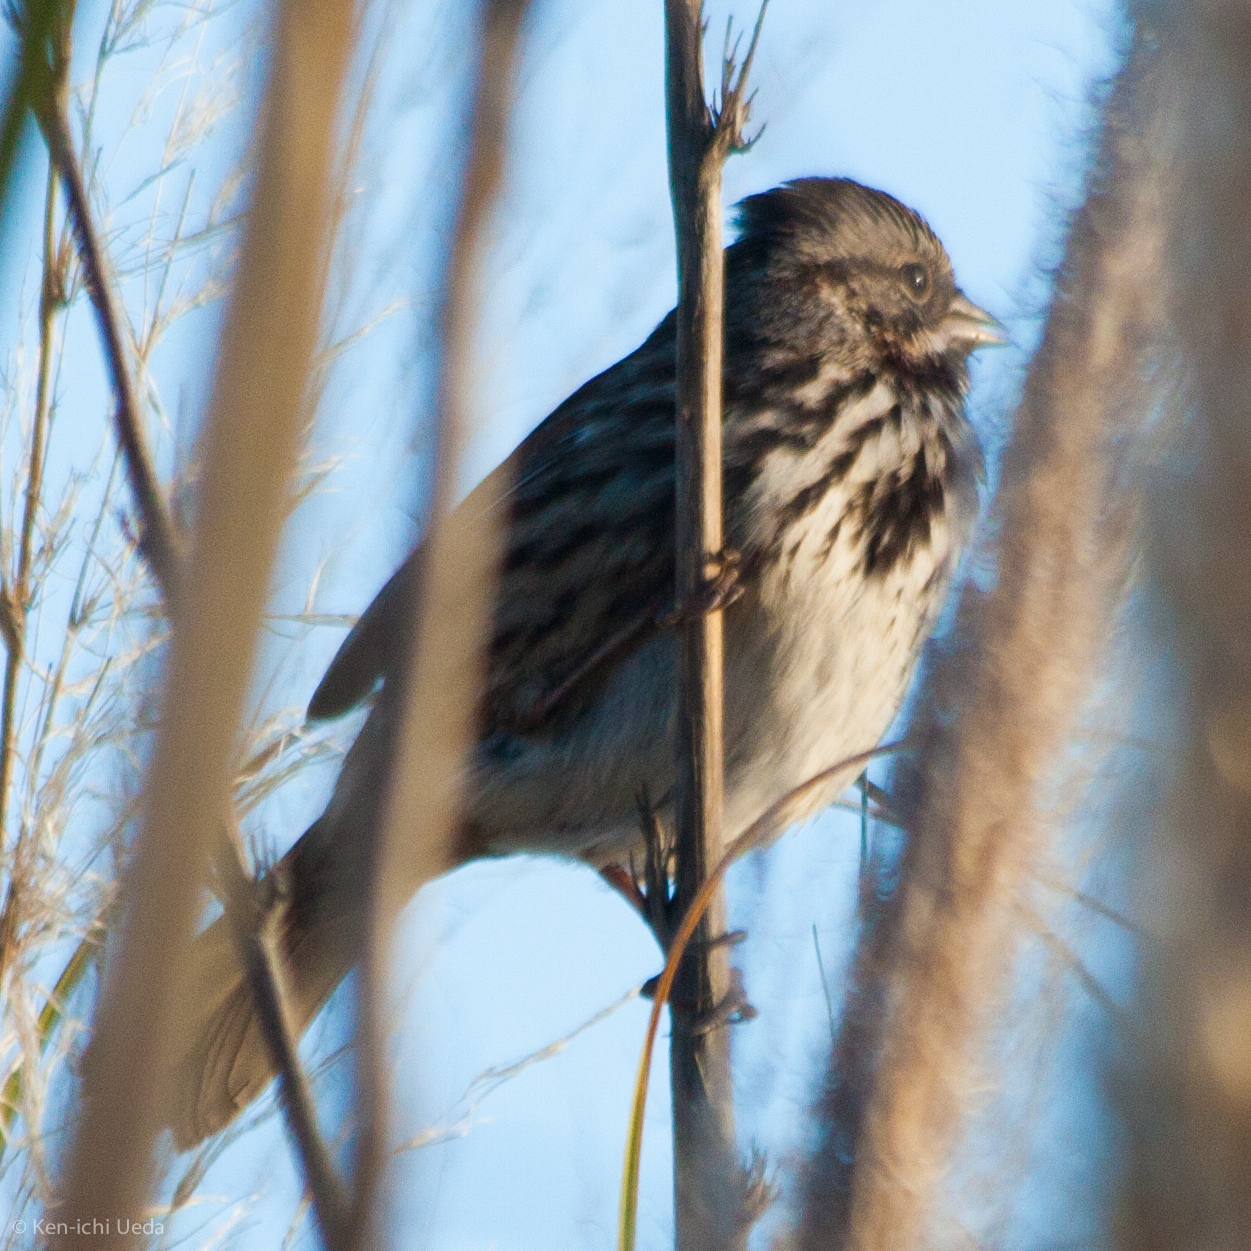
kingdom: Animalia
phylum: Chordata
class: Aves
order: Passeriformes
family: Passerellidae
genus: Melospiza
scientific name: Melospiza melodia
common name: Song sparrow
